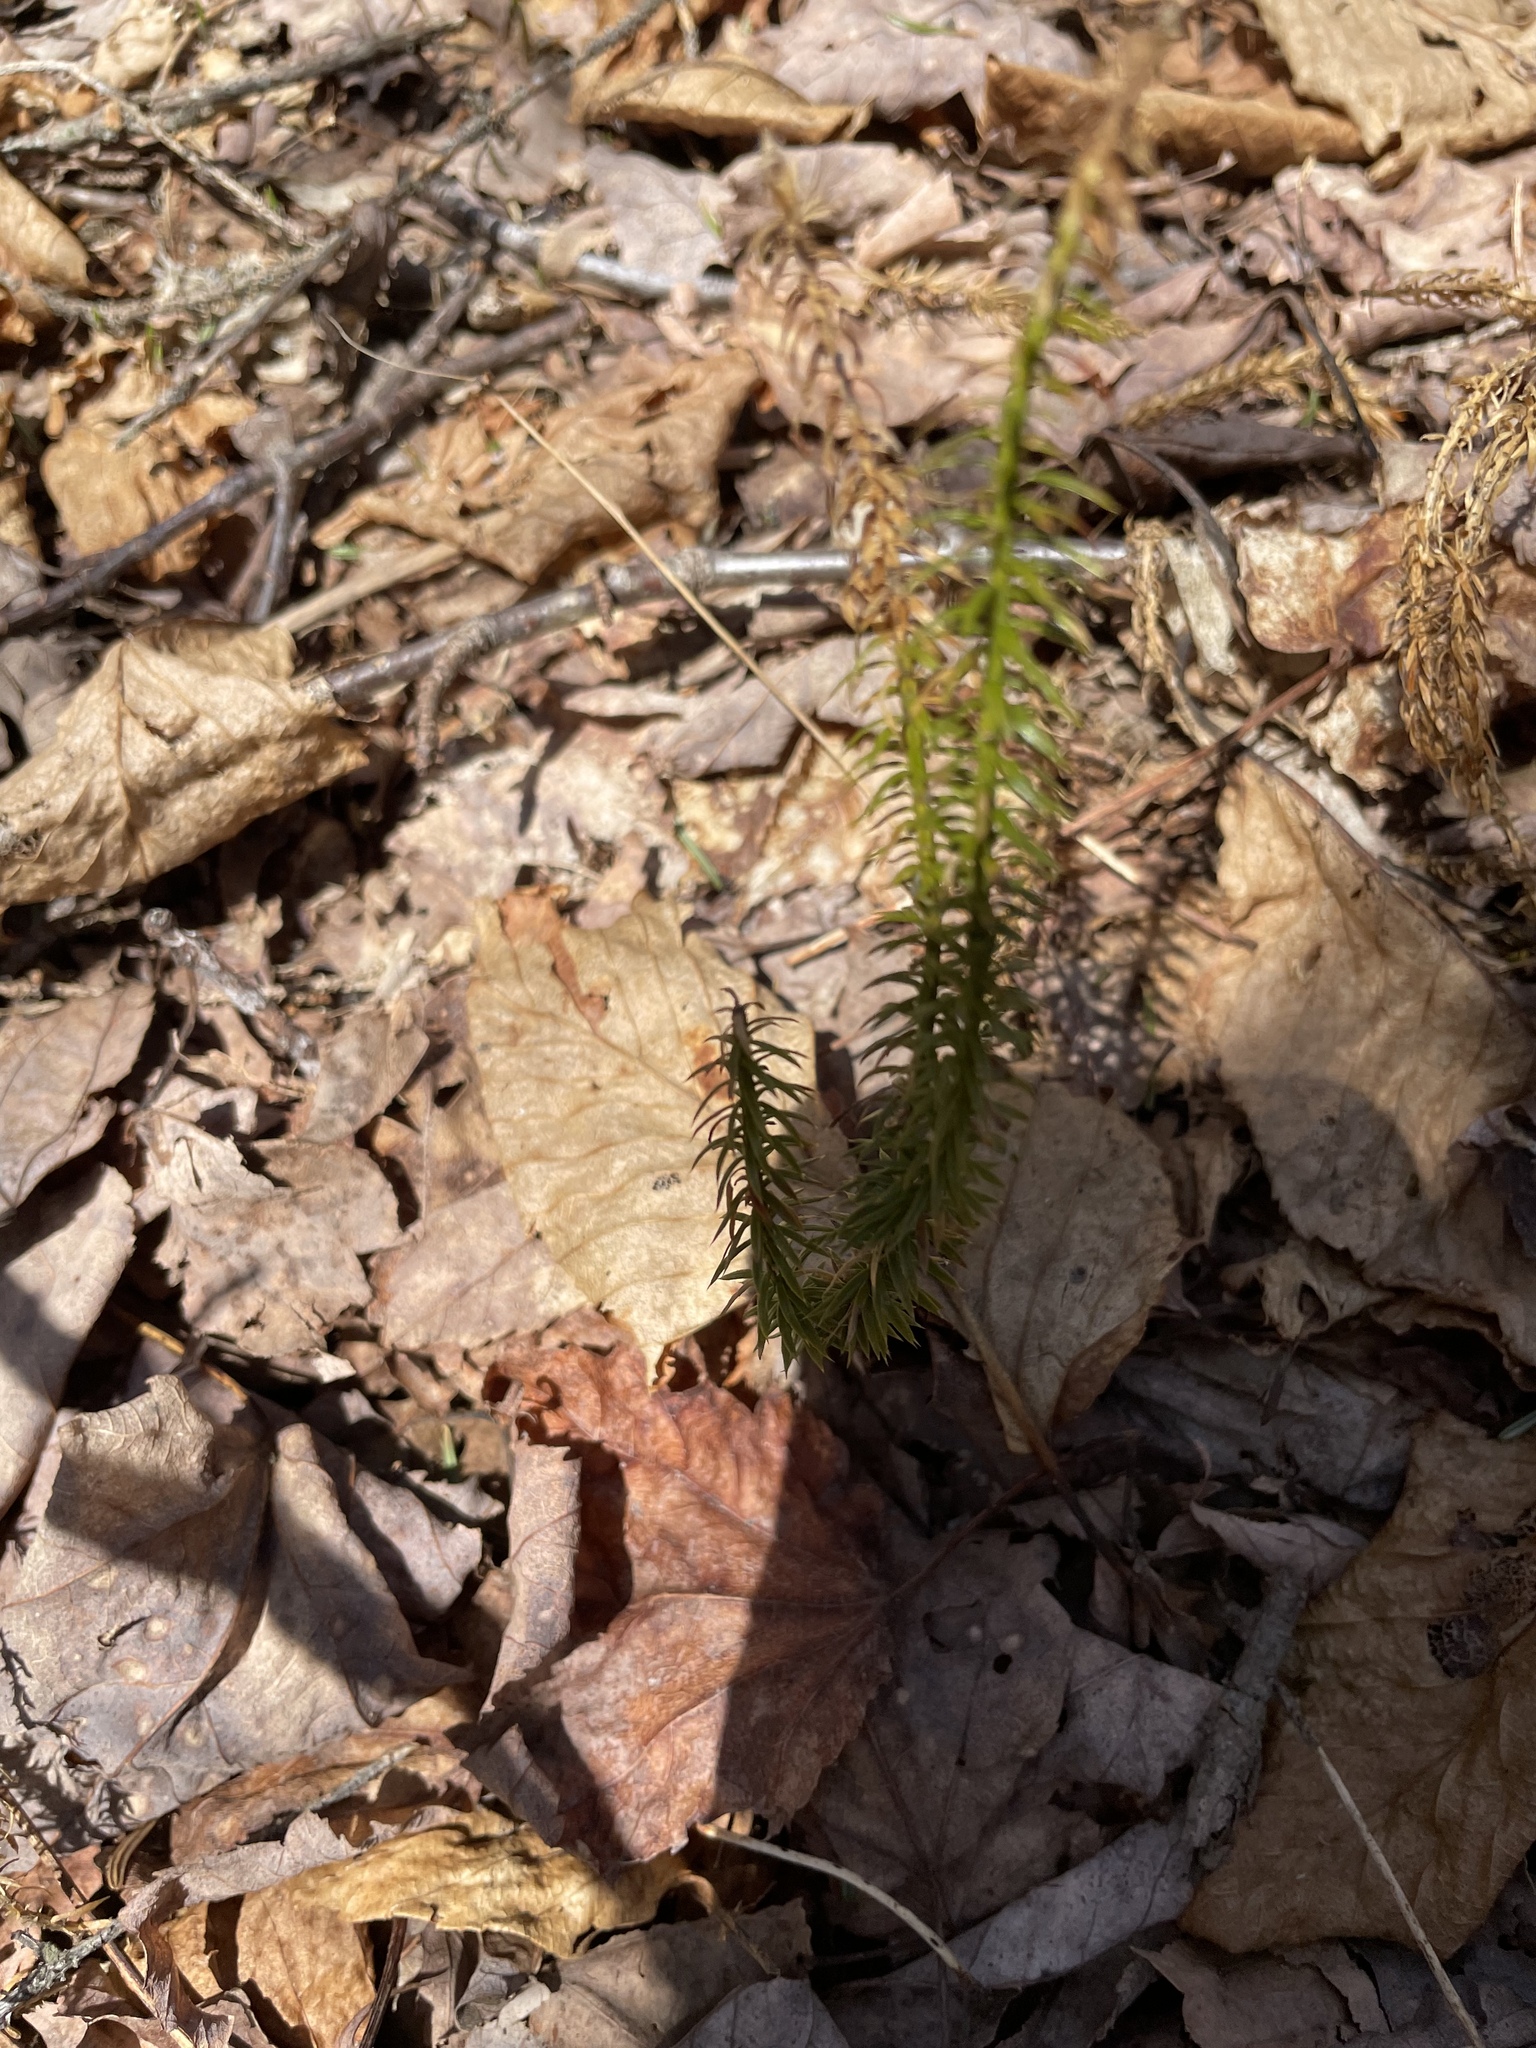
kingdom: Plantae
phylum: Tracheophyta
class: Lycopodiopsida
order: Lycopodiales
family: Lycopodiaceae
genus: Spinulum
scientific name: Spinulum annotinum
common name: Interrupted club-moss
